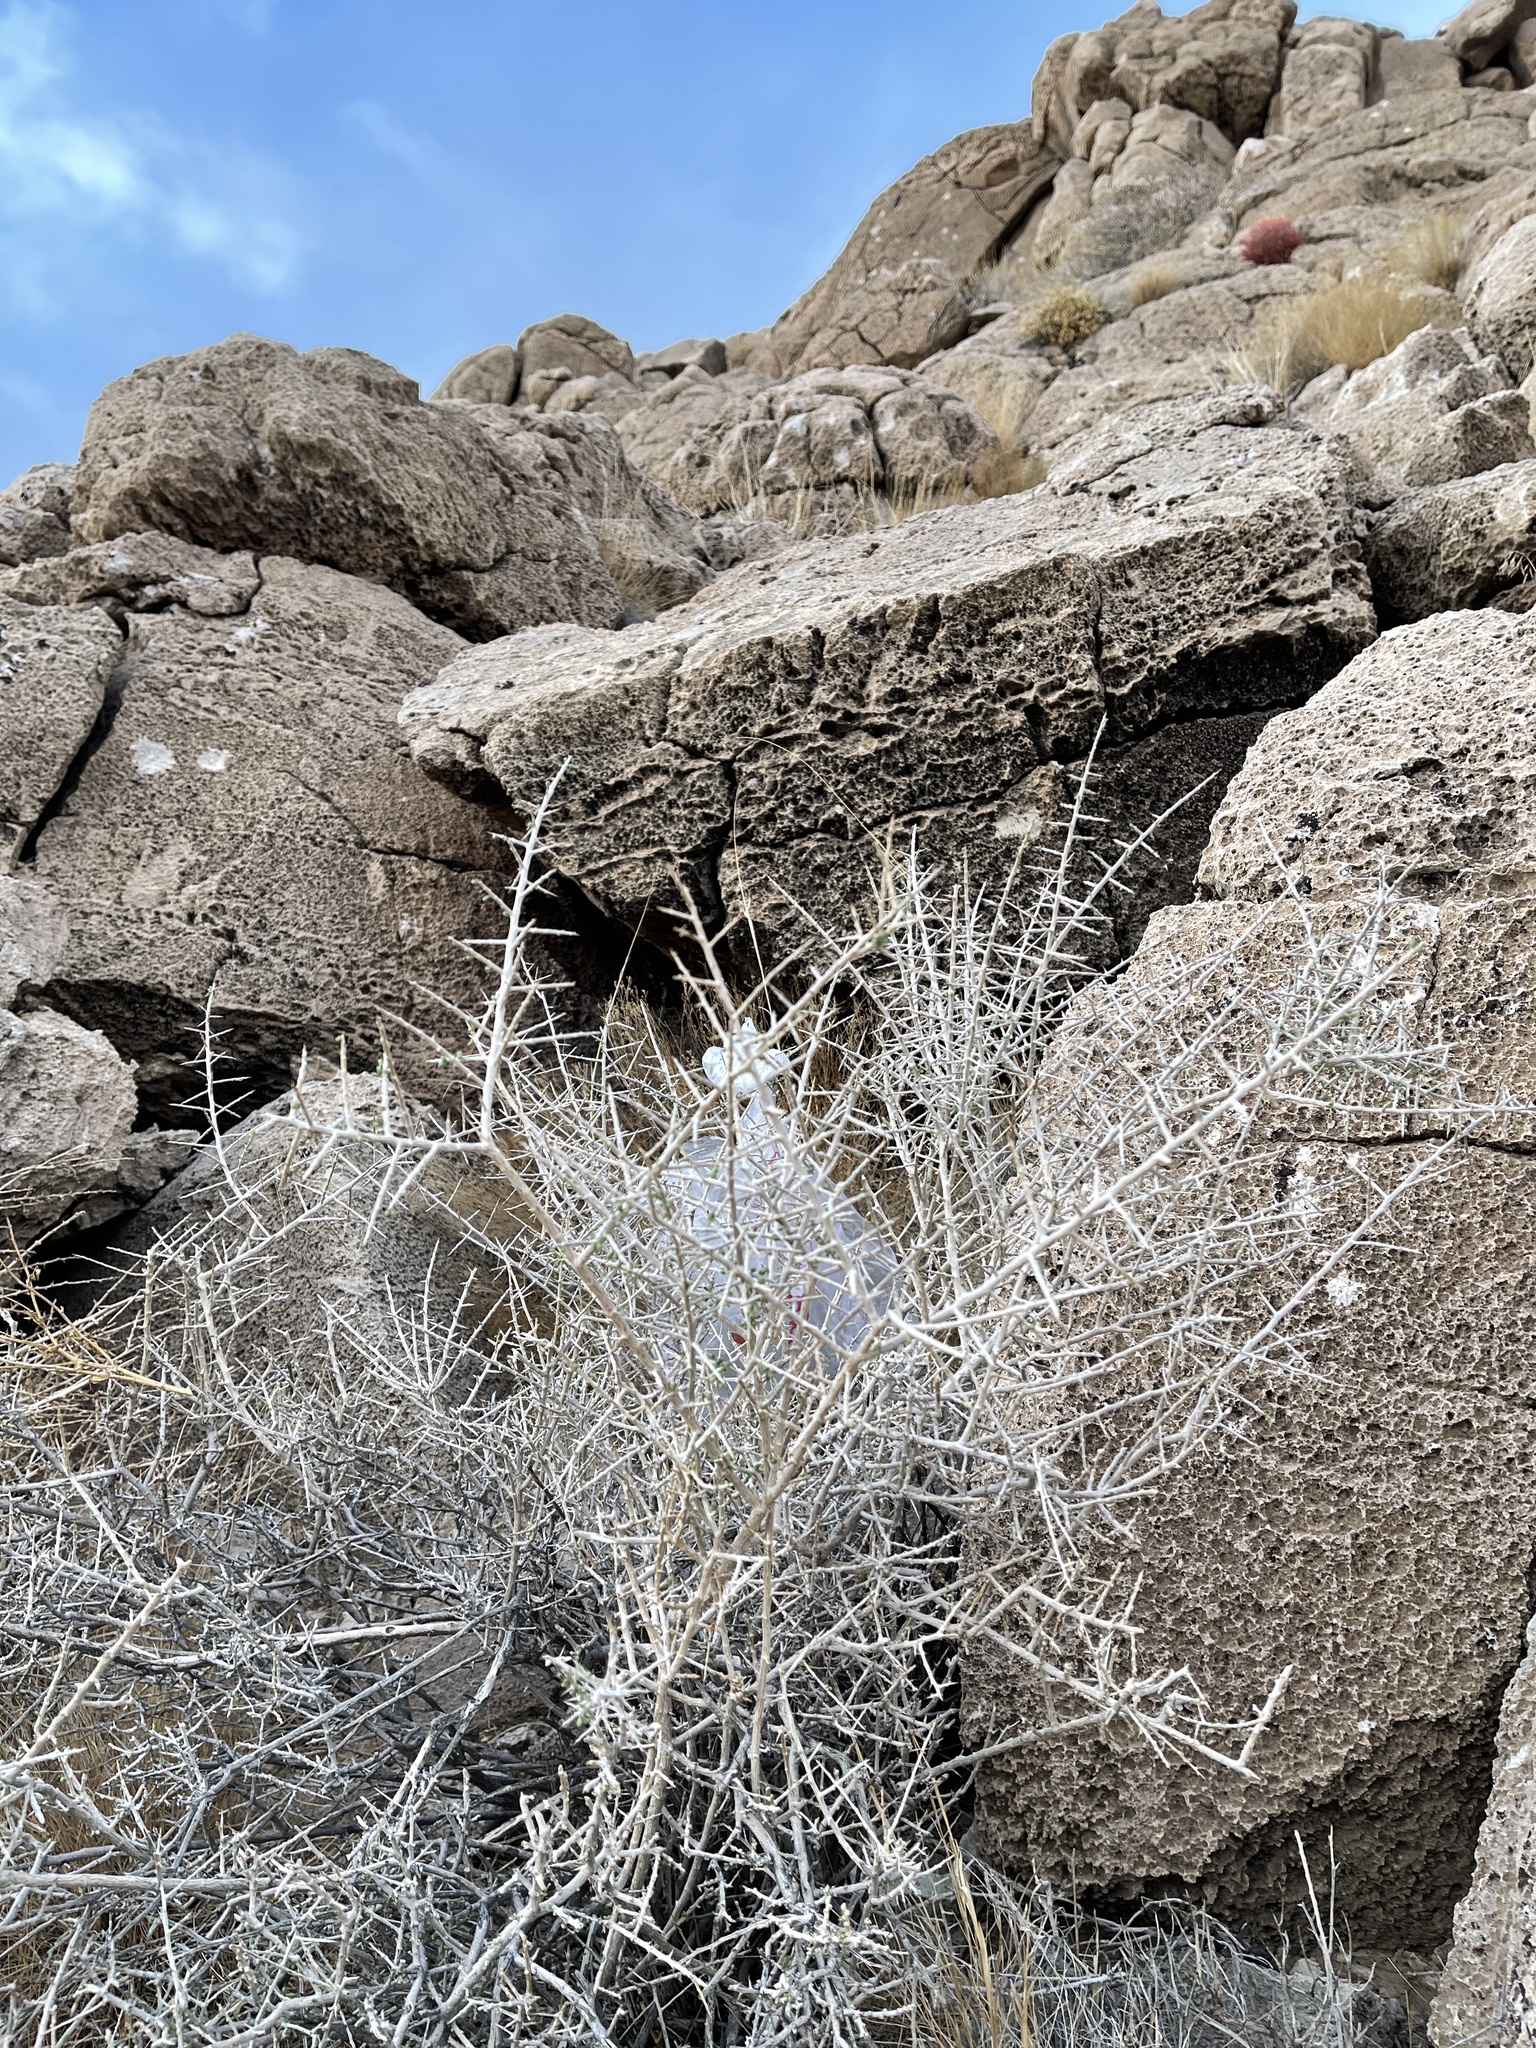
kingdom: Plantae
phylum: Tracheophyta
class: Magnoliopsida
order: Solanales
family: Solanaceae
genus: Lycium
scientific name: Lycium andersonii
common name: Water-jacket
